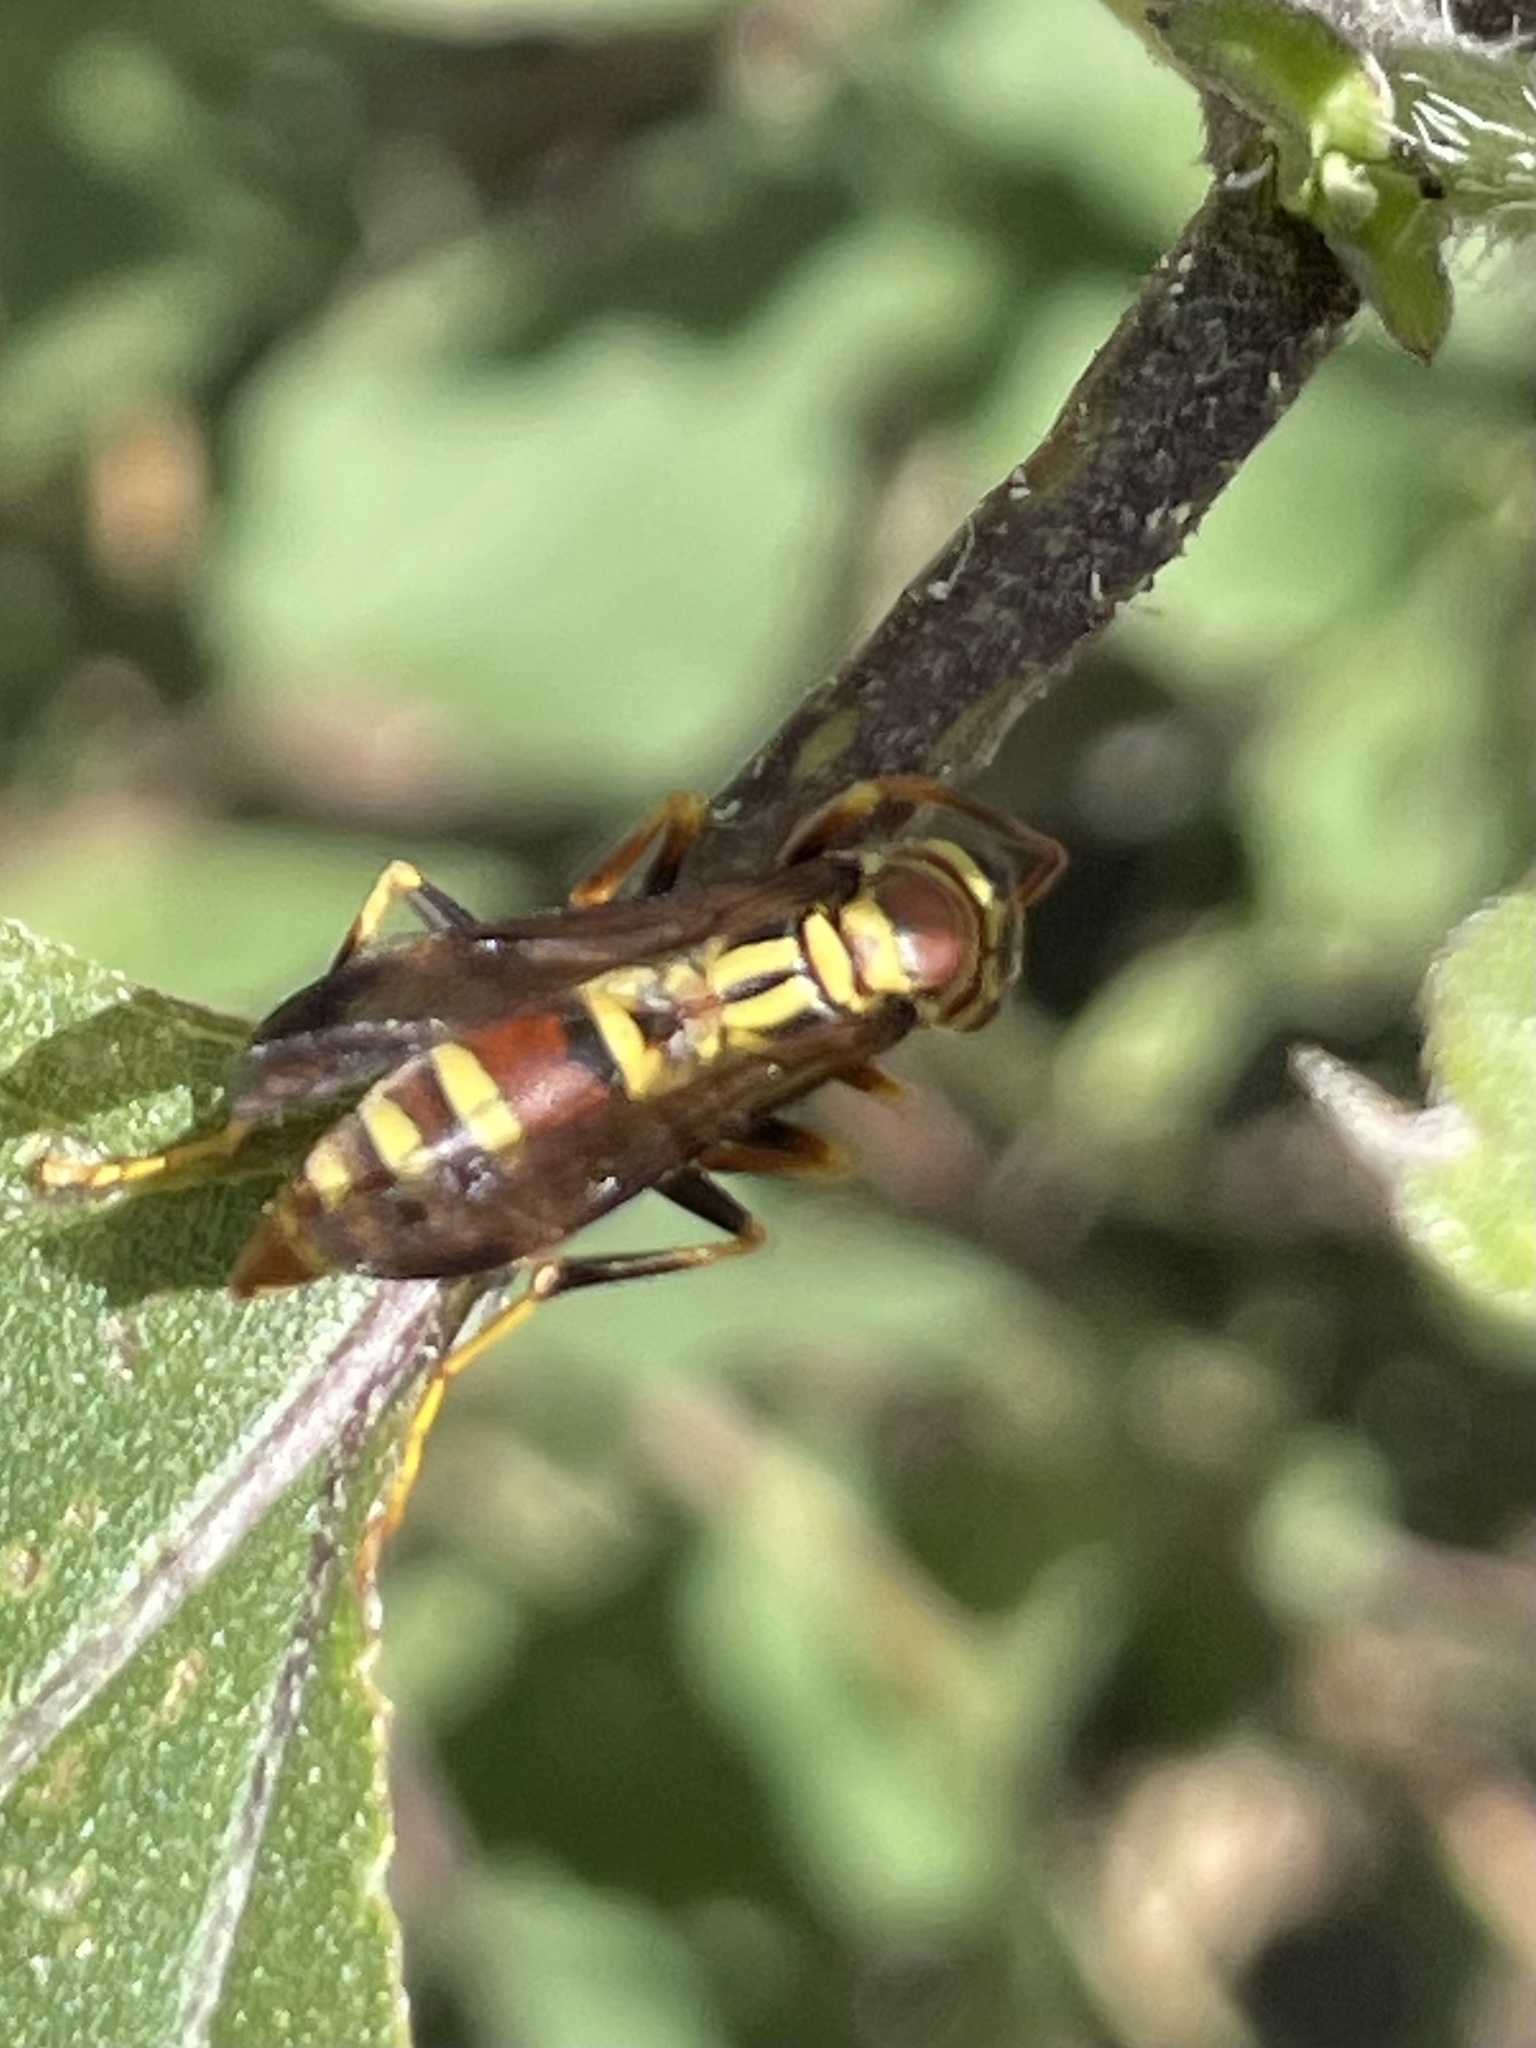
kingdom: Animalia
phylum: Arthropoda
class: Insecta
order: Hymenoptera
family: Eumenidae
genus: Polistes
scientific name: Polistes exclamans
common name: Paper wasp
